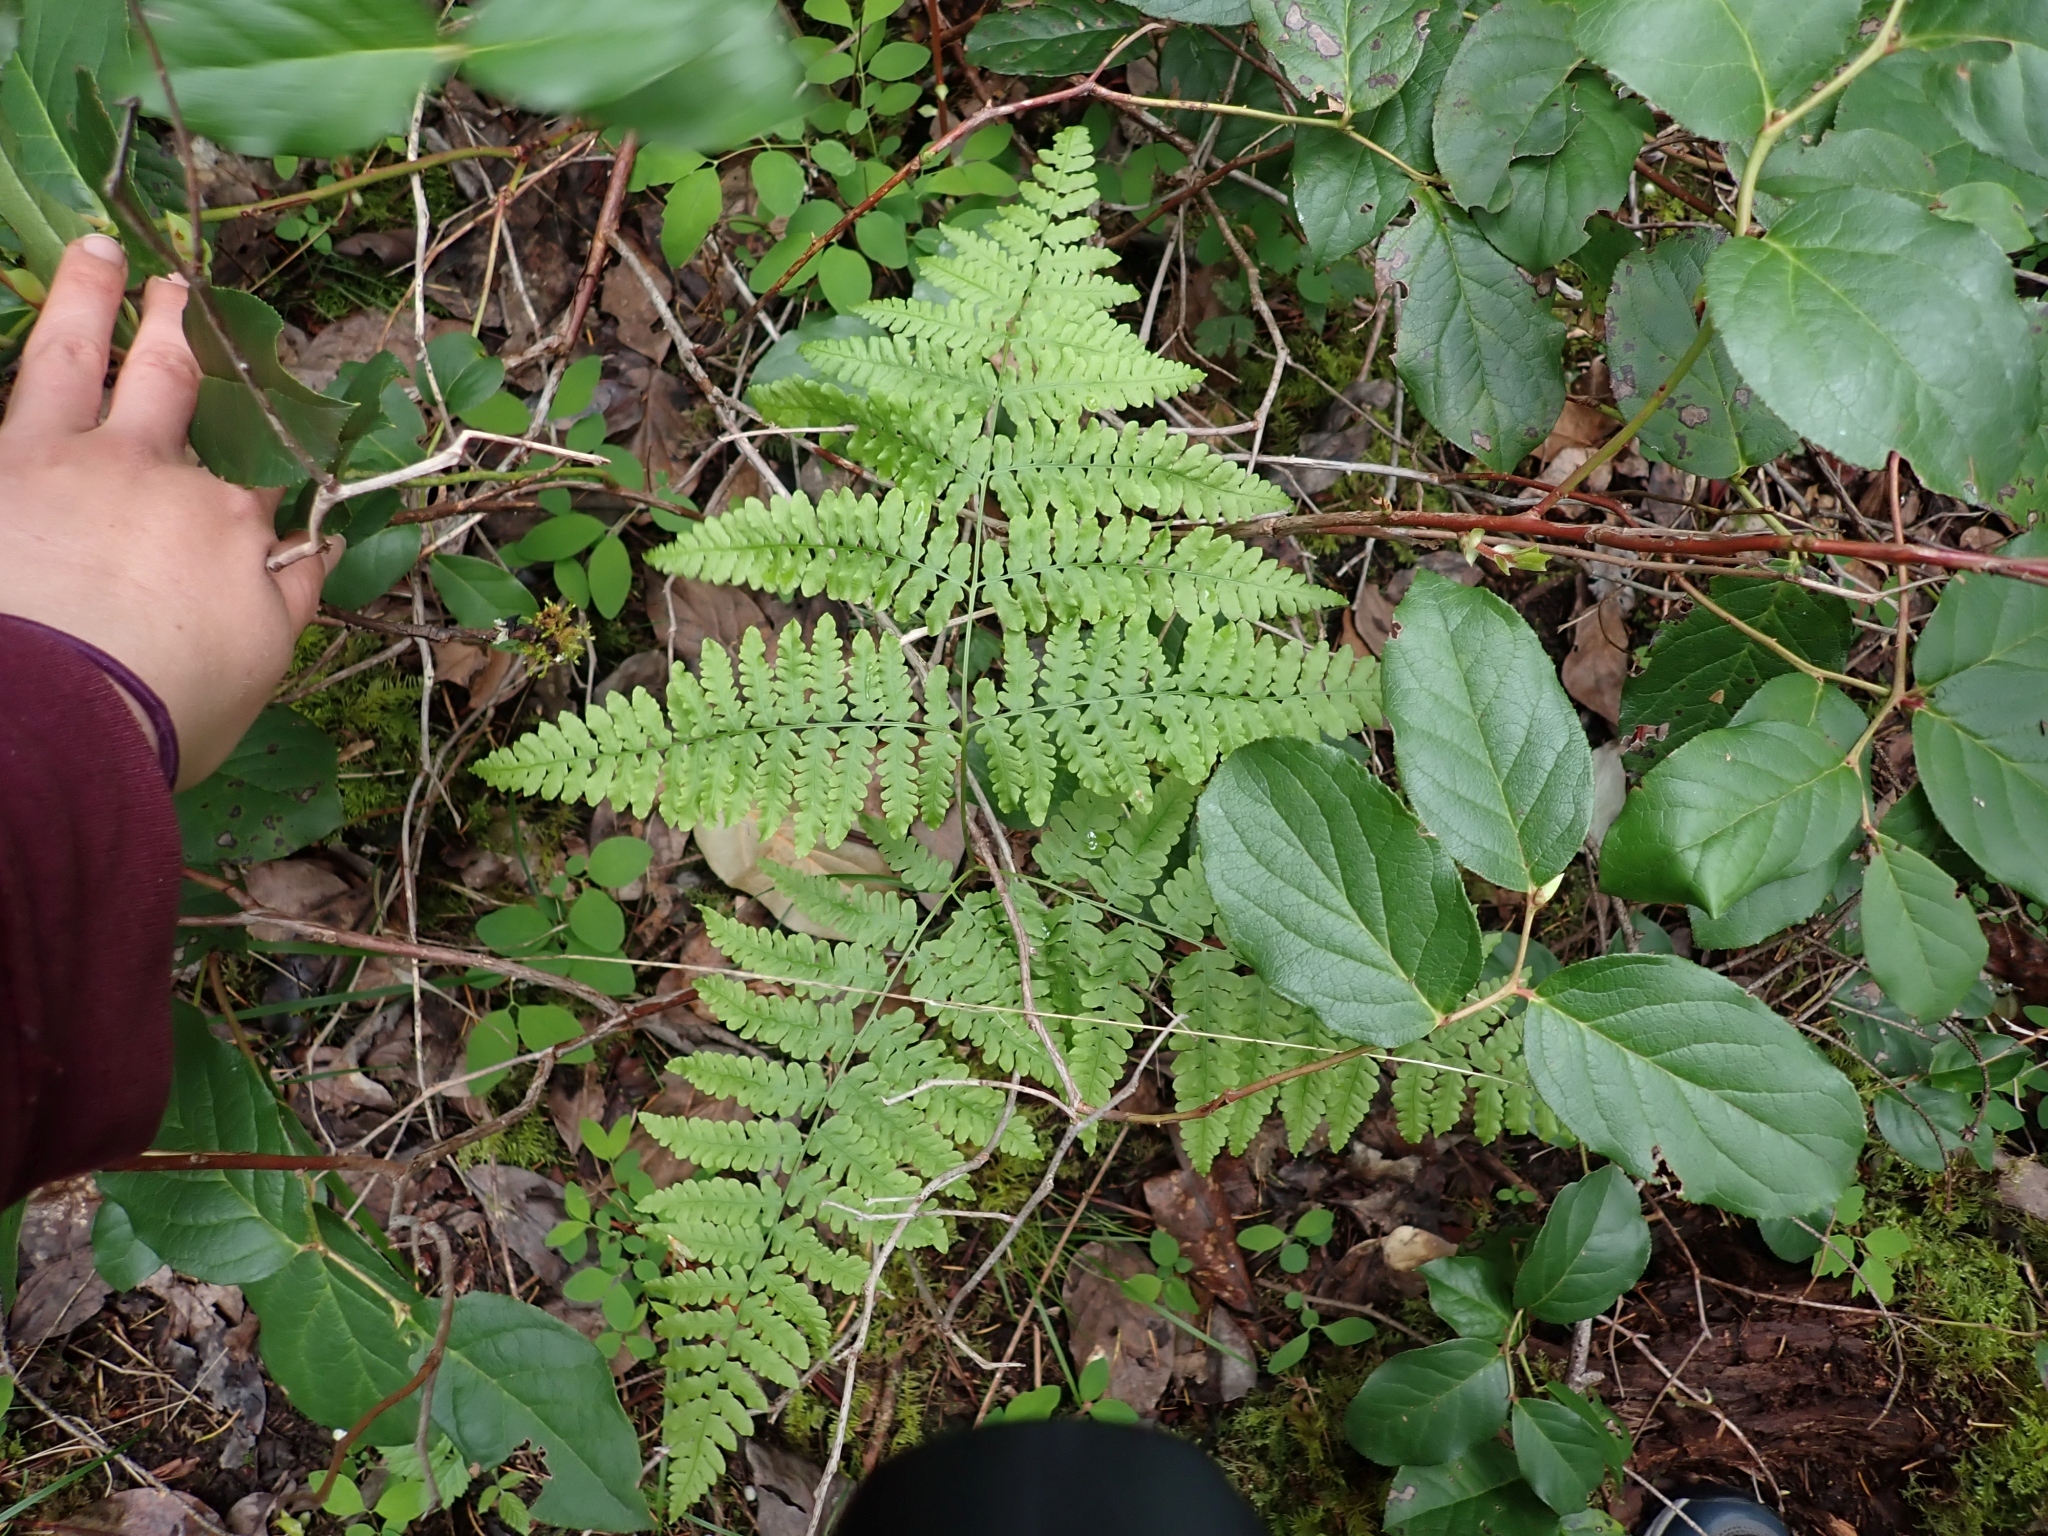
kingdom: Plantae
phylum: Tracheophyta
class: Polypodiopsida
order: Polypodiales
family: Dennstaedtiaceae
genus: Pteridium
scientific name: Pteridium aquilinum
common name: Bracken
